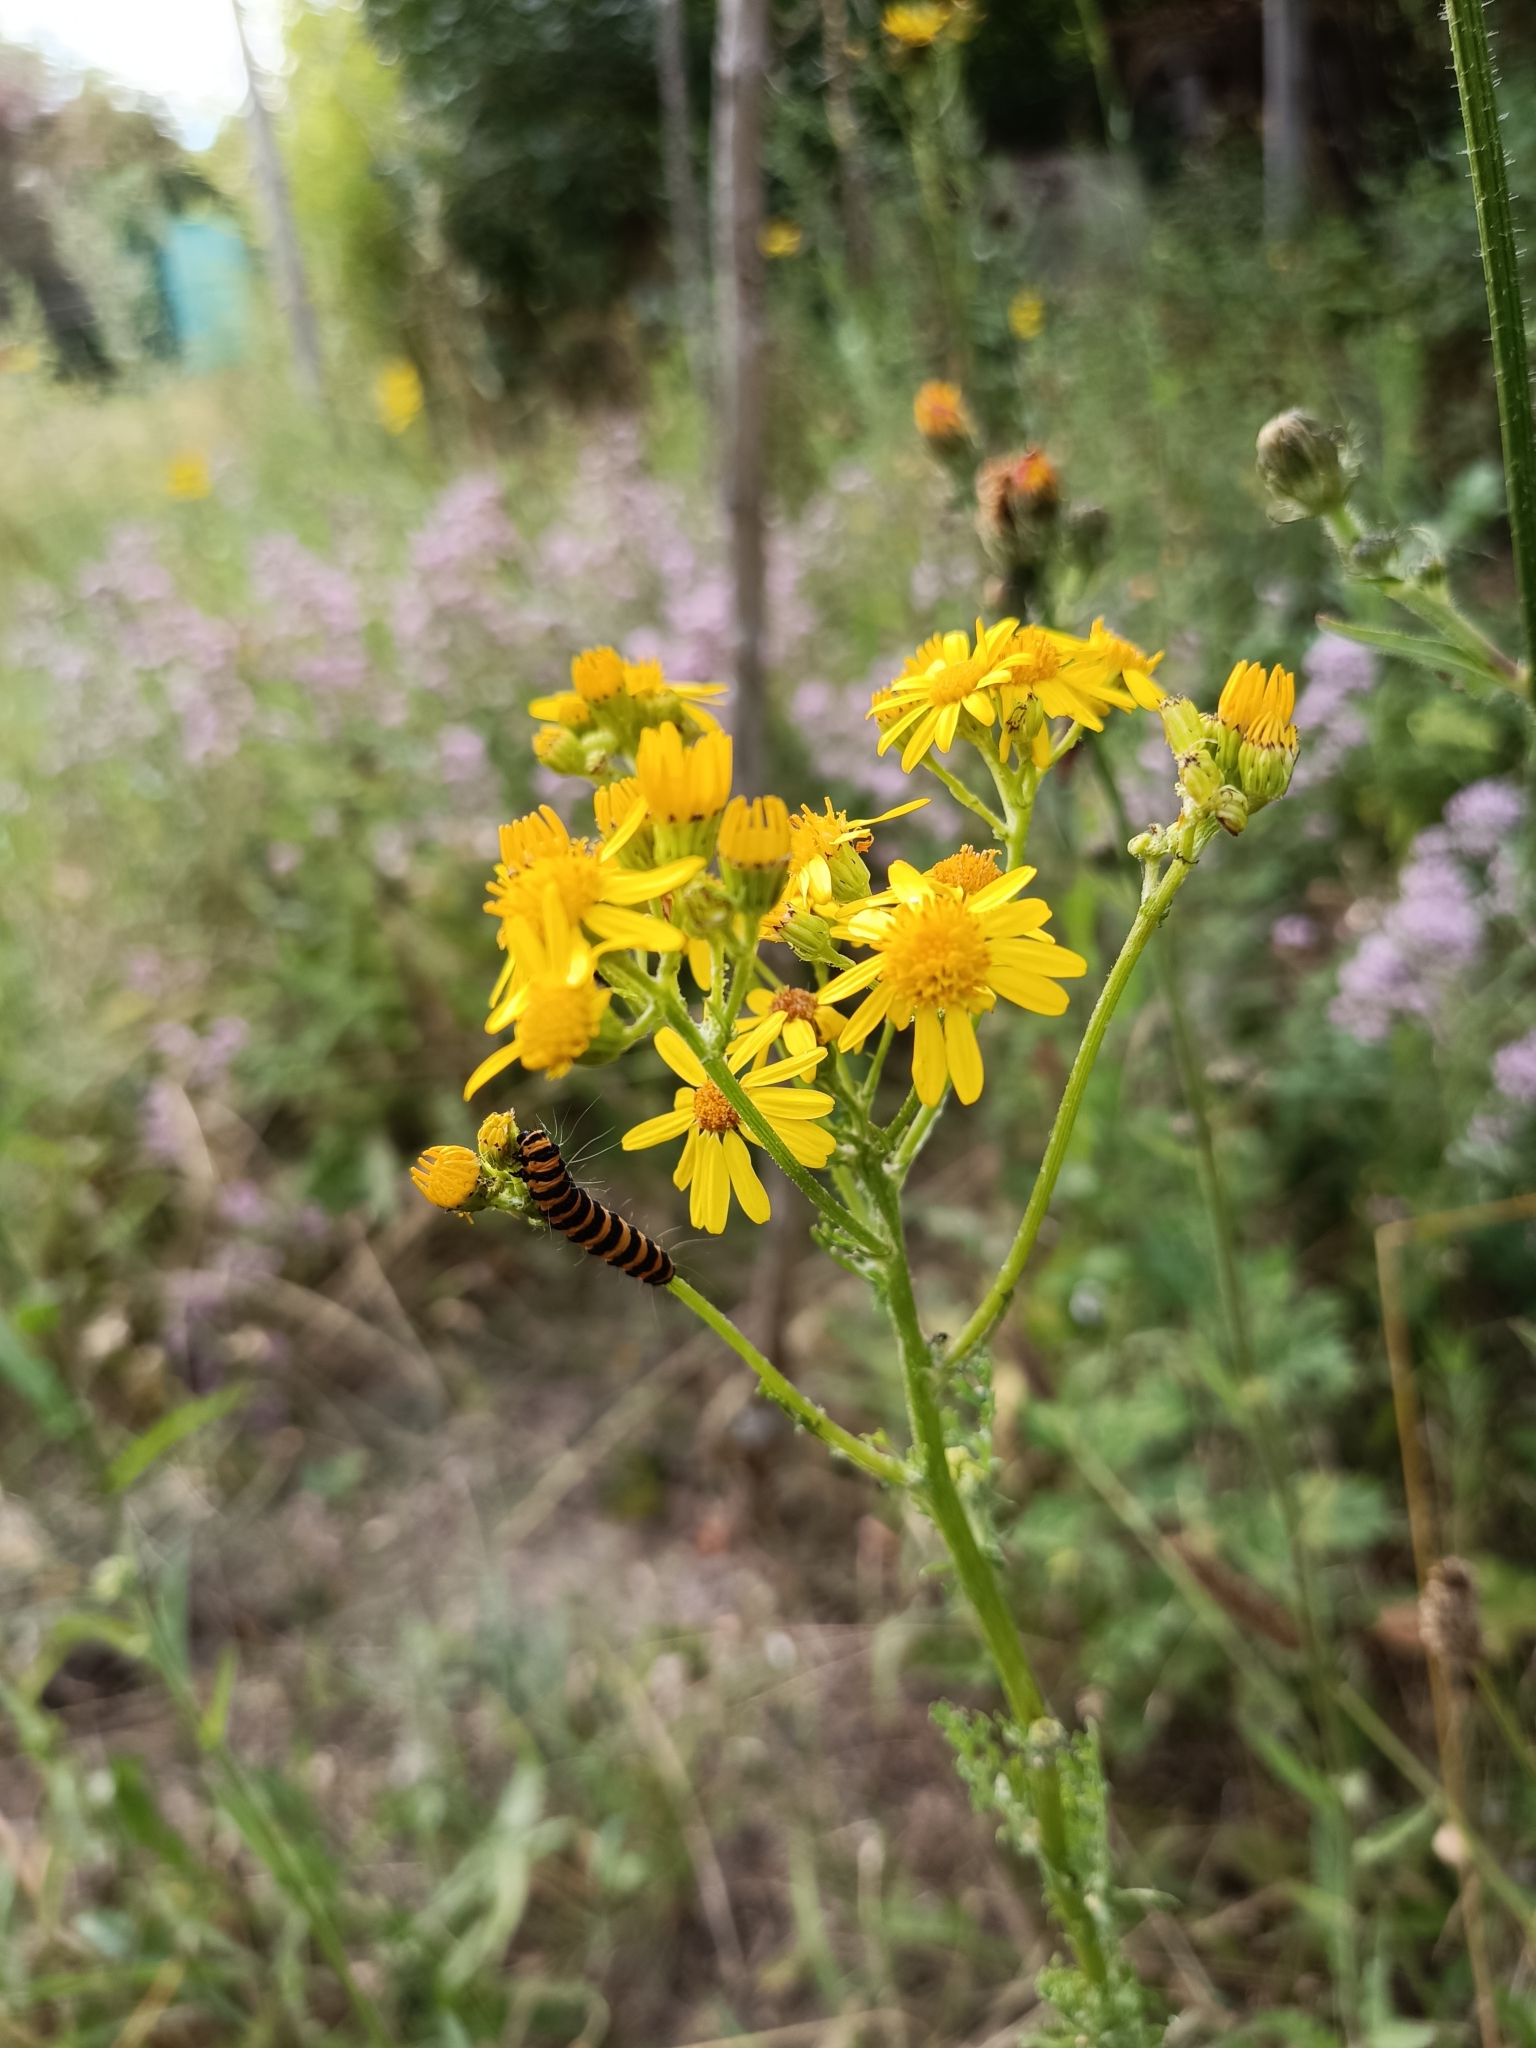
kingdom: Animalia
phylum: Arthropoda
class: Insecta
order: Lepidoptera
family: Erebidae
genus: Tyria
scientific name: Tyria jacobaeae
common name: Cinnabar
